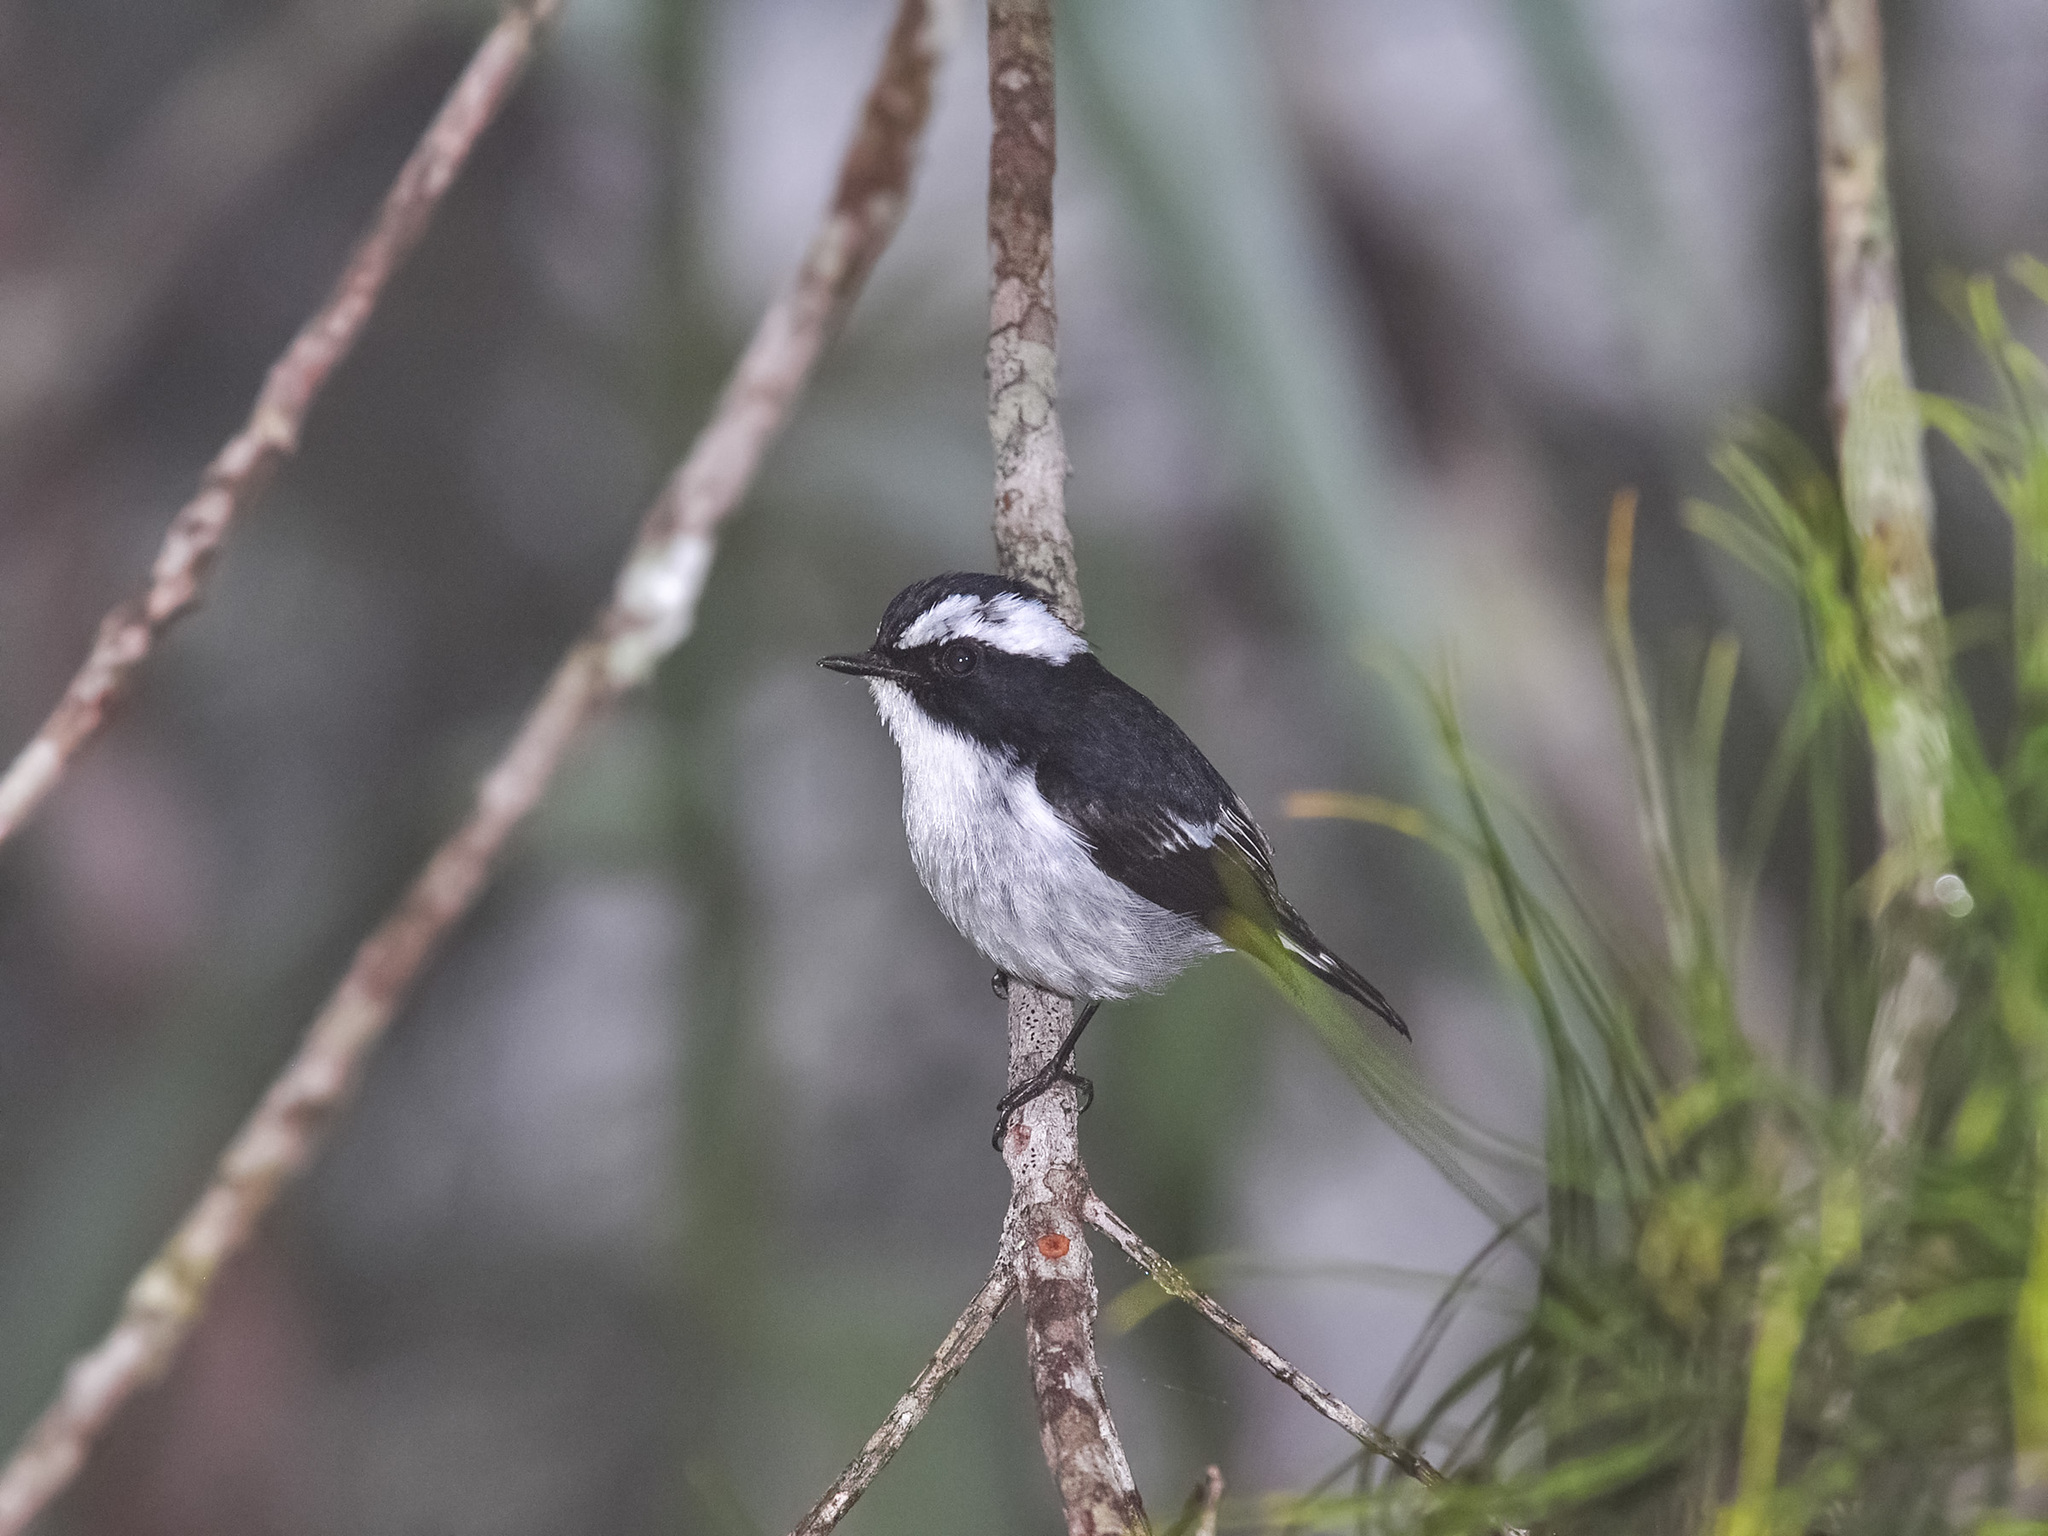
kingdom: Animalia
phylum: Chordata
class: Aves
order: Passeriformes
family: Muscicapidae
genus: Ficedula
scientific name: Ficedula westermanni
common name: Little pied flycatcher
